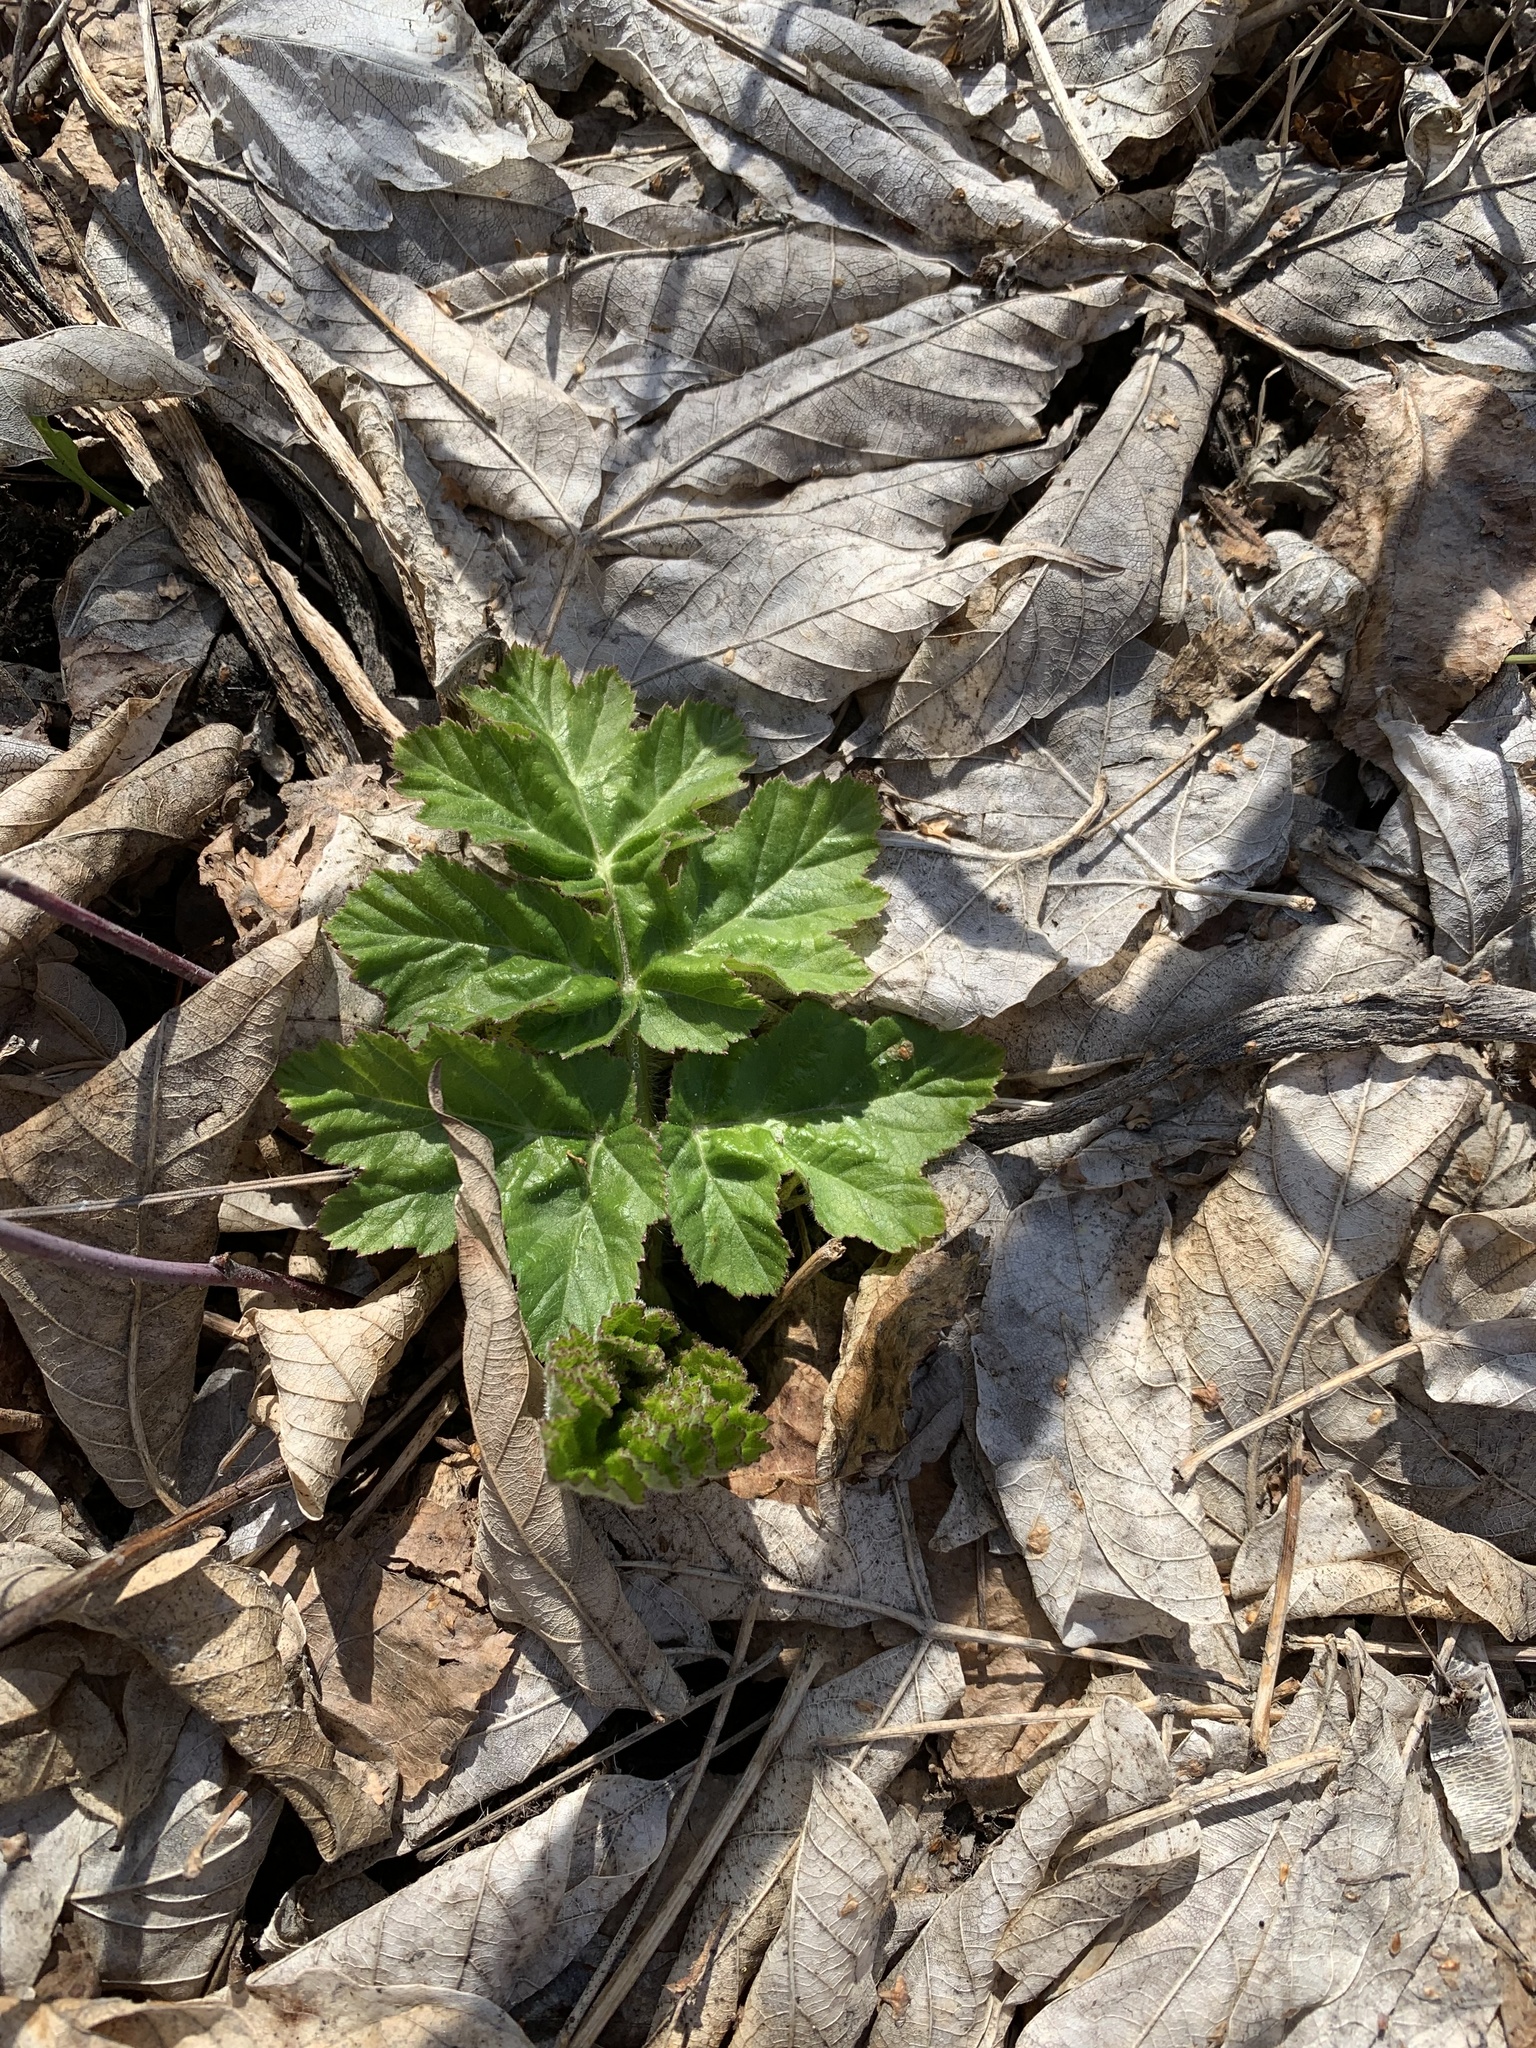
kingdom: Plantae
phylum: Tracheophyta
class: Magnoliopsida
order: Apiales
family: Apiaceae
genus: Heracleum
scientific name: Heracleum sosnowskyi
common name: Sosnowsky's hogweed
